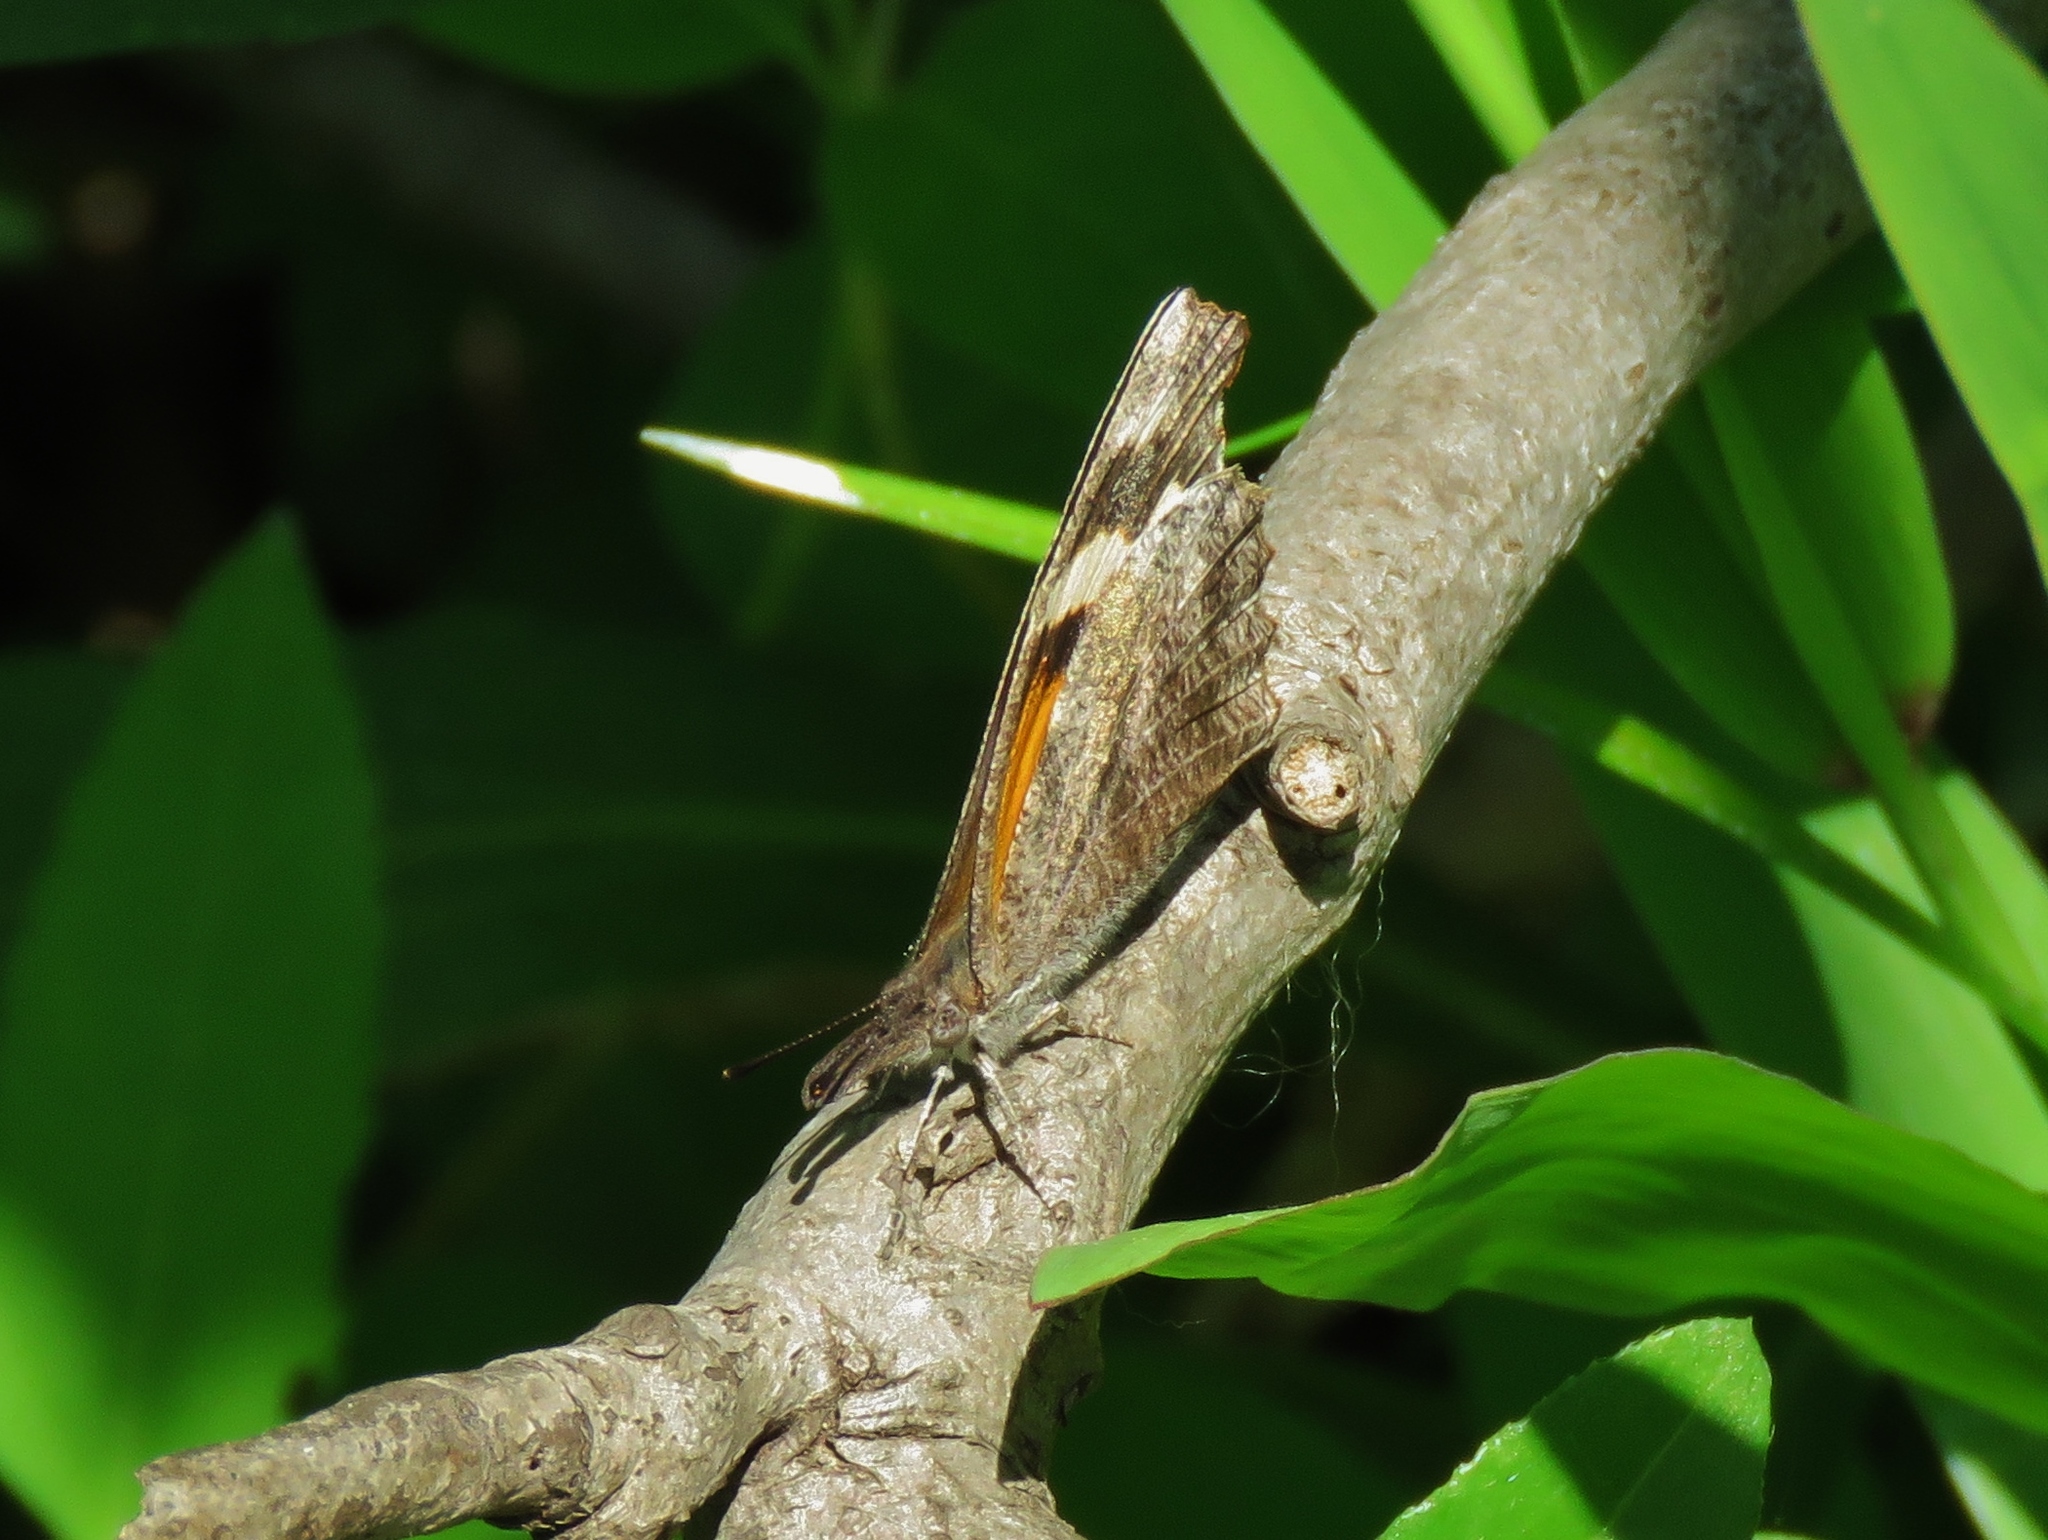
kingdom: Animalia
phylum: Arthropoda
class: Insecta
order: Lepidoptera
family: Nymphalidae
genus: Libytheana
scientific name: Libytheana carinenta
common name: American snout
